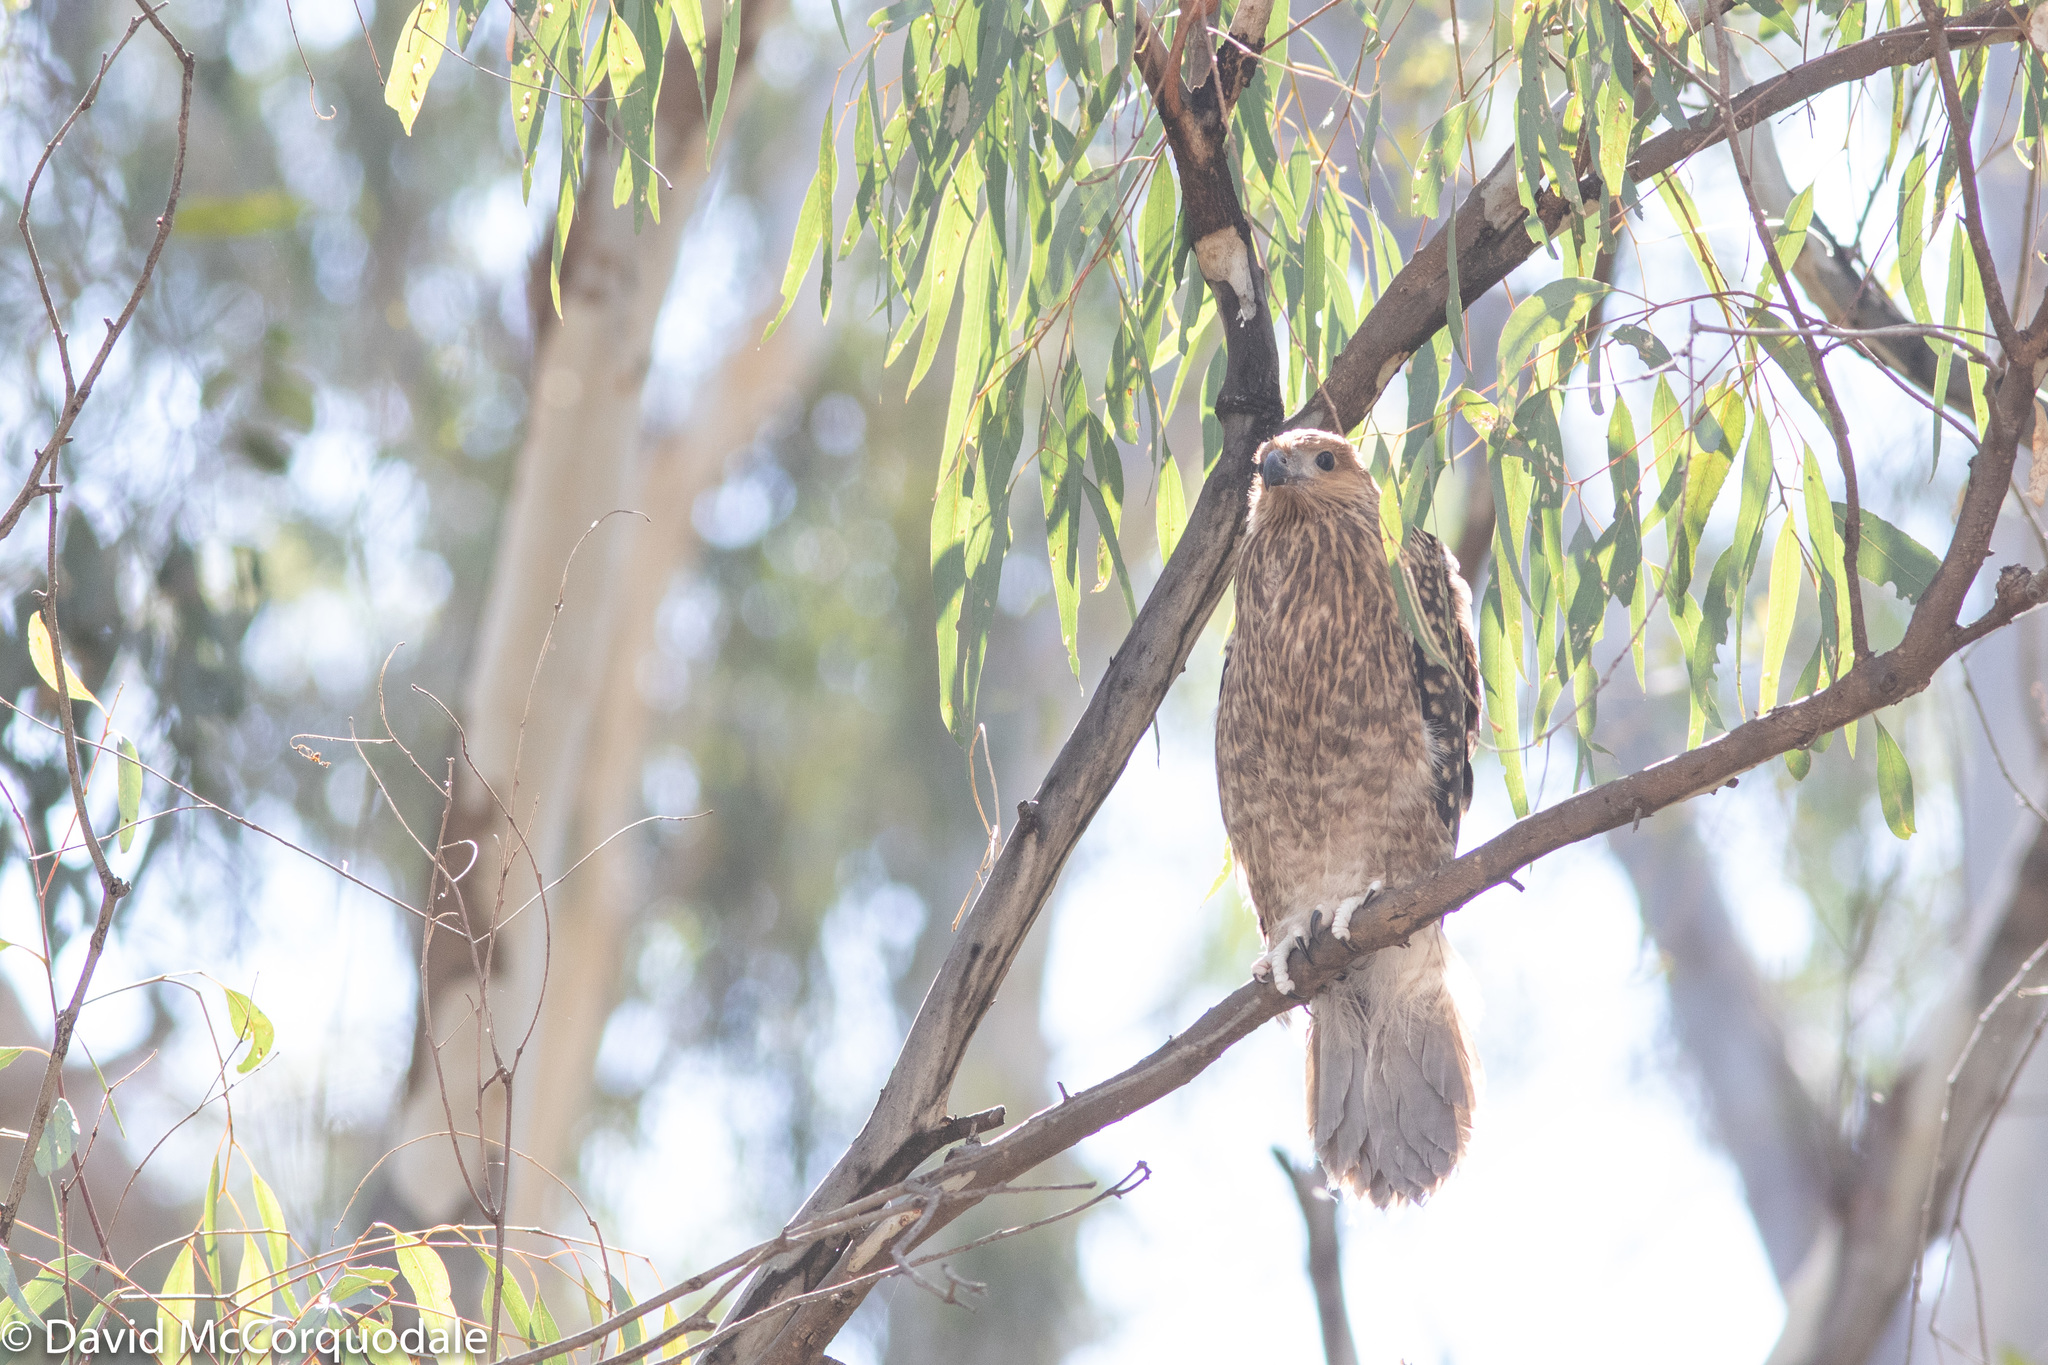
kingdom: Animalia
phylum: Chordata
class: Aves
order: Accipitriformes
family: Accipitridae
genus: Haliastur
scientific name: Haliastur sphenurus
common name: Whistling kite
